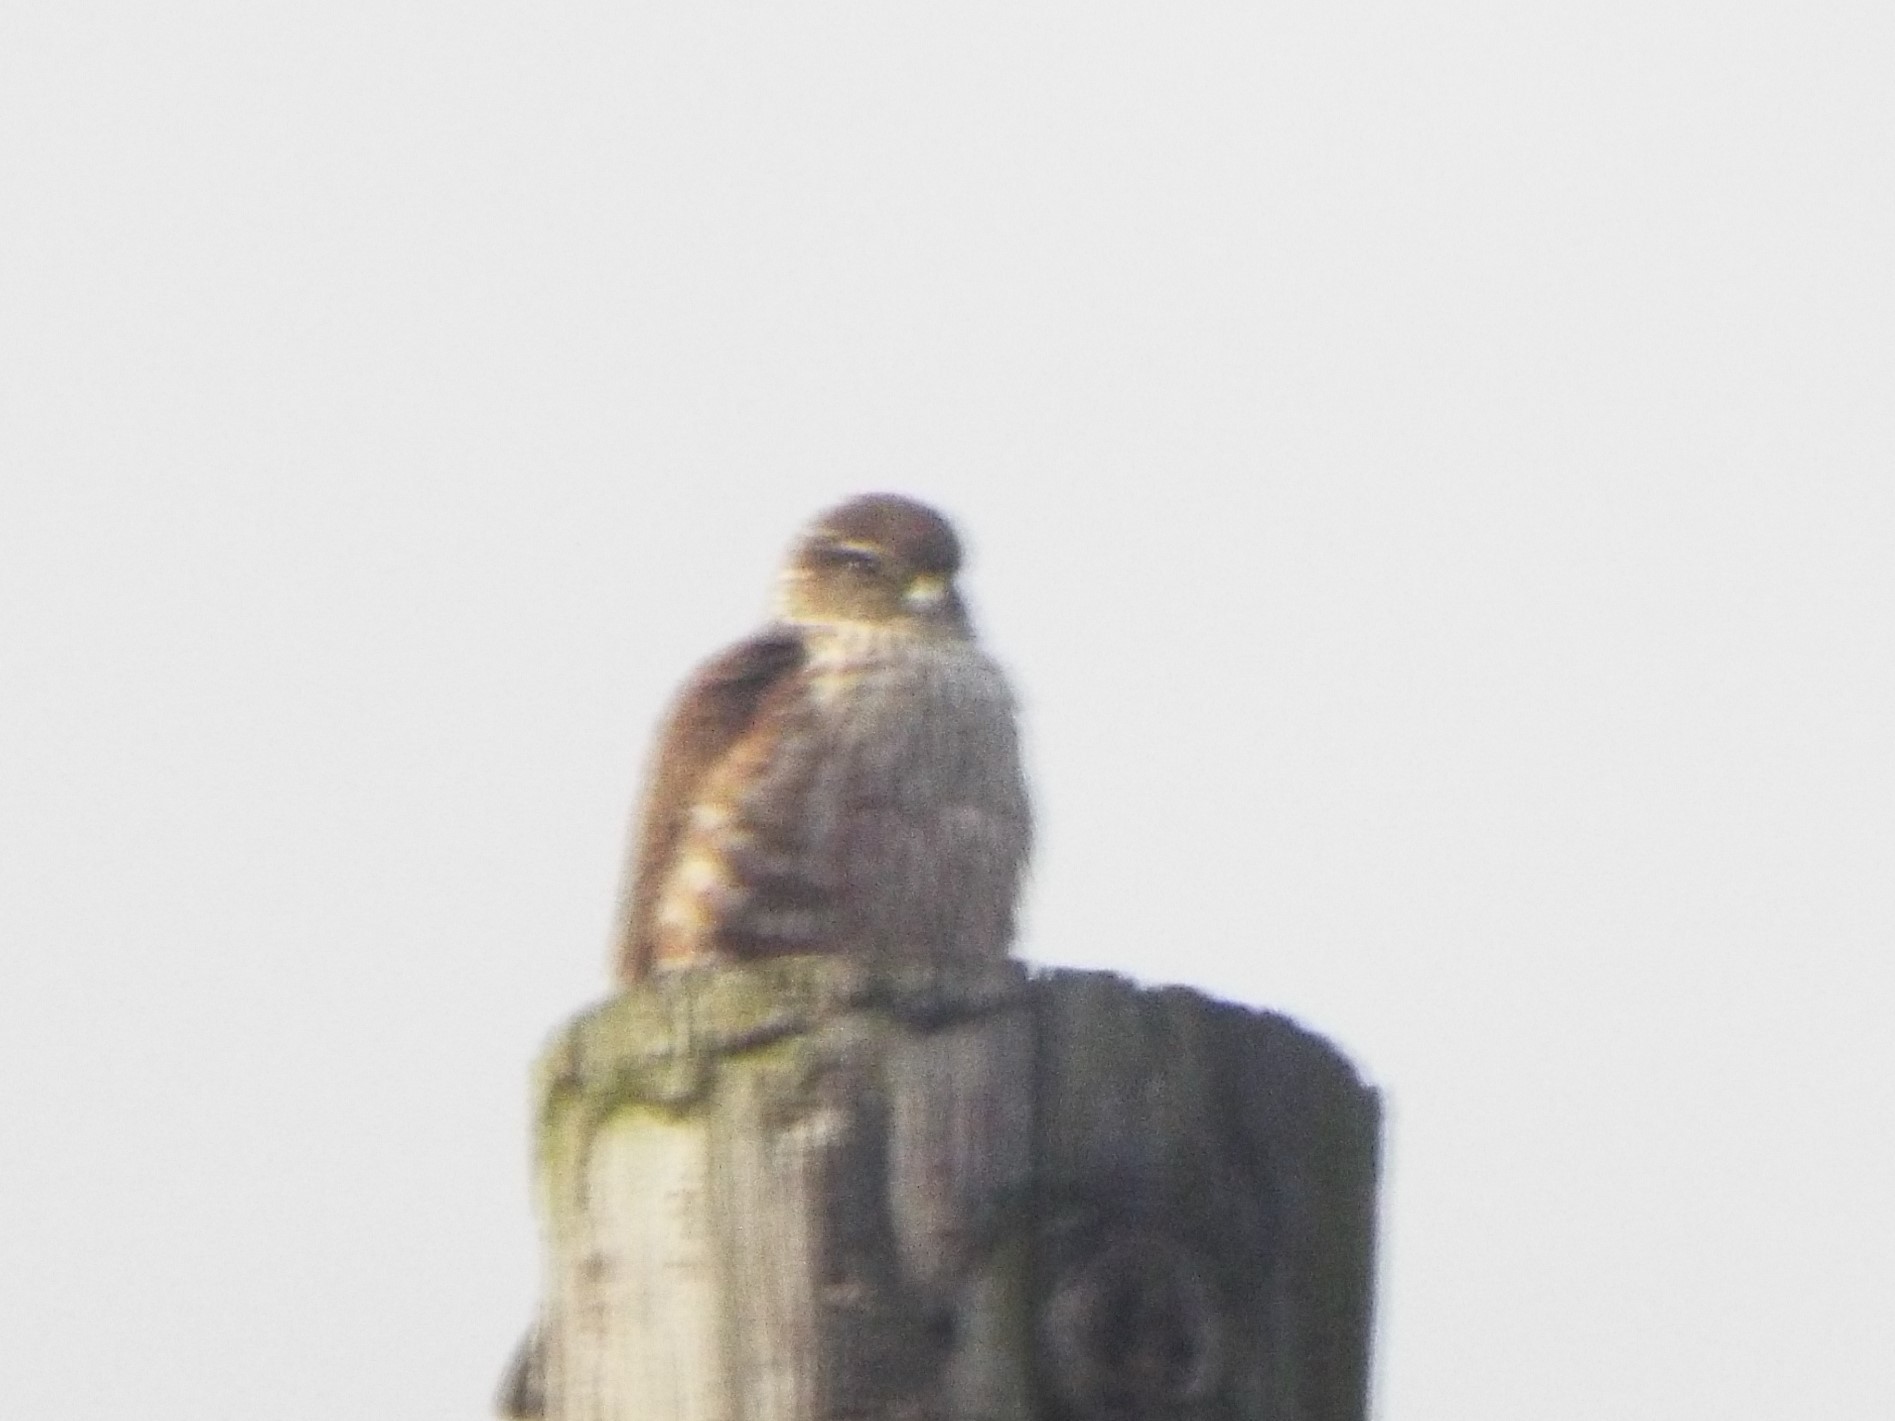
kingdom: Animalia
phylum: Chordata
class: Aves
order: Falconiformes
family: Falconidae
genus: Falco
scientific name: Falco columbarius
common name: Merlin
